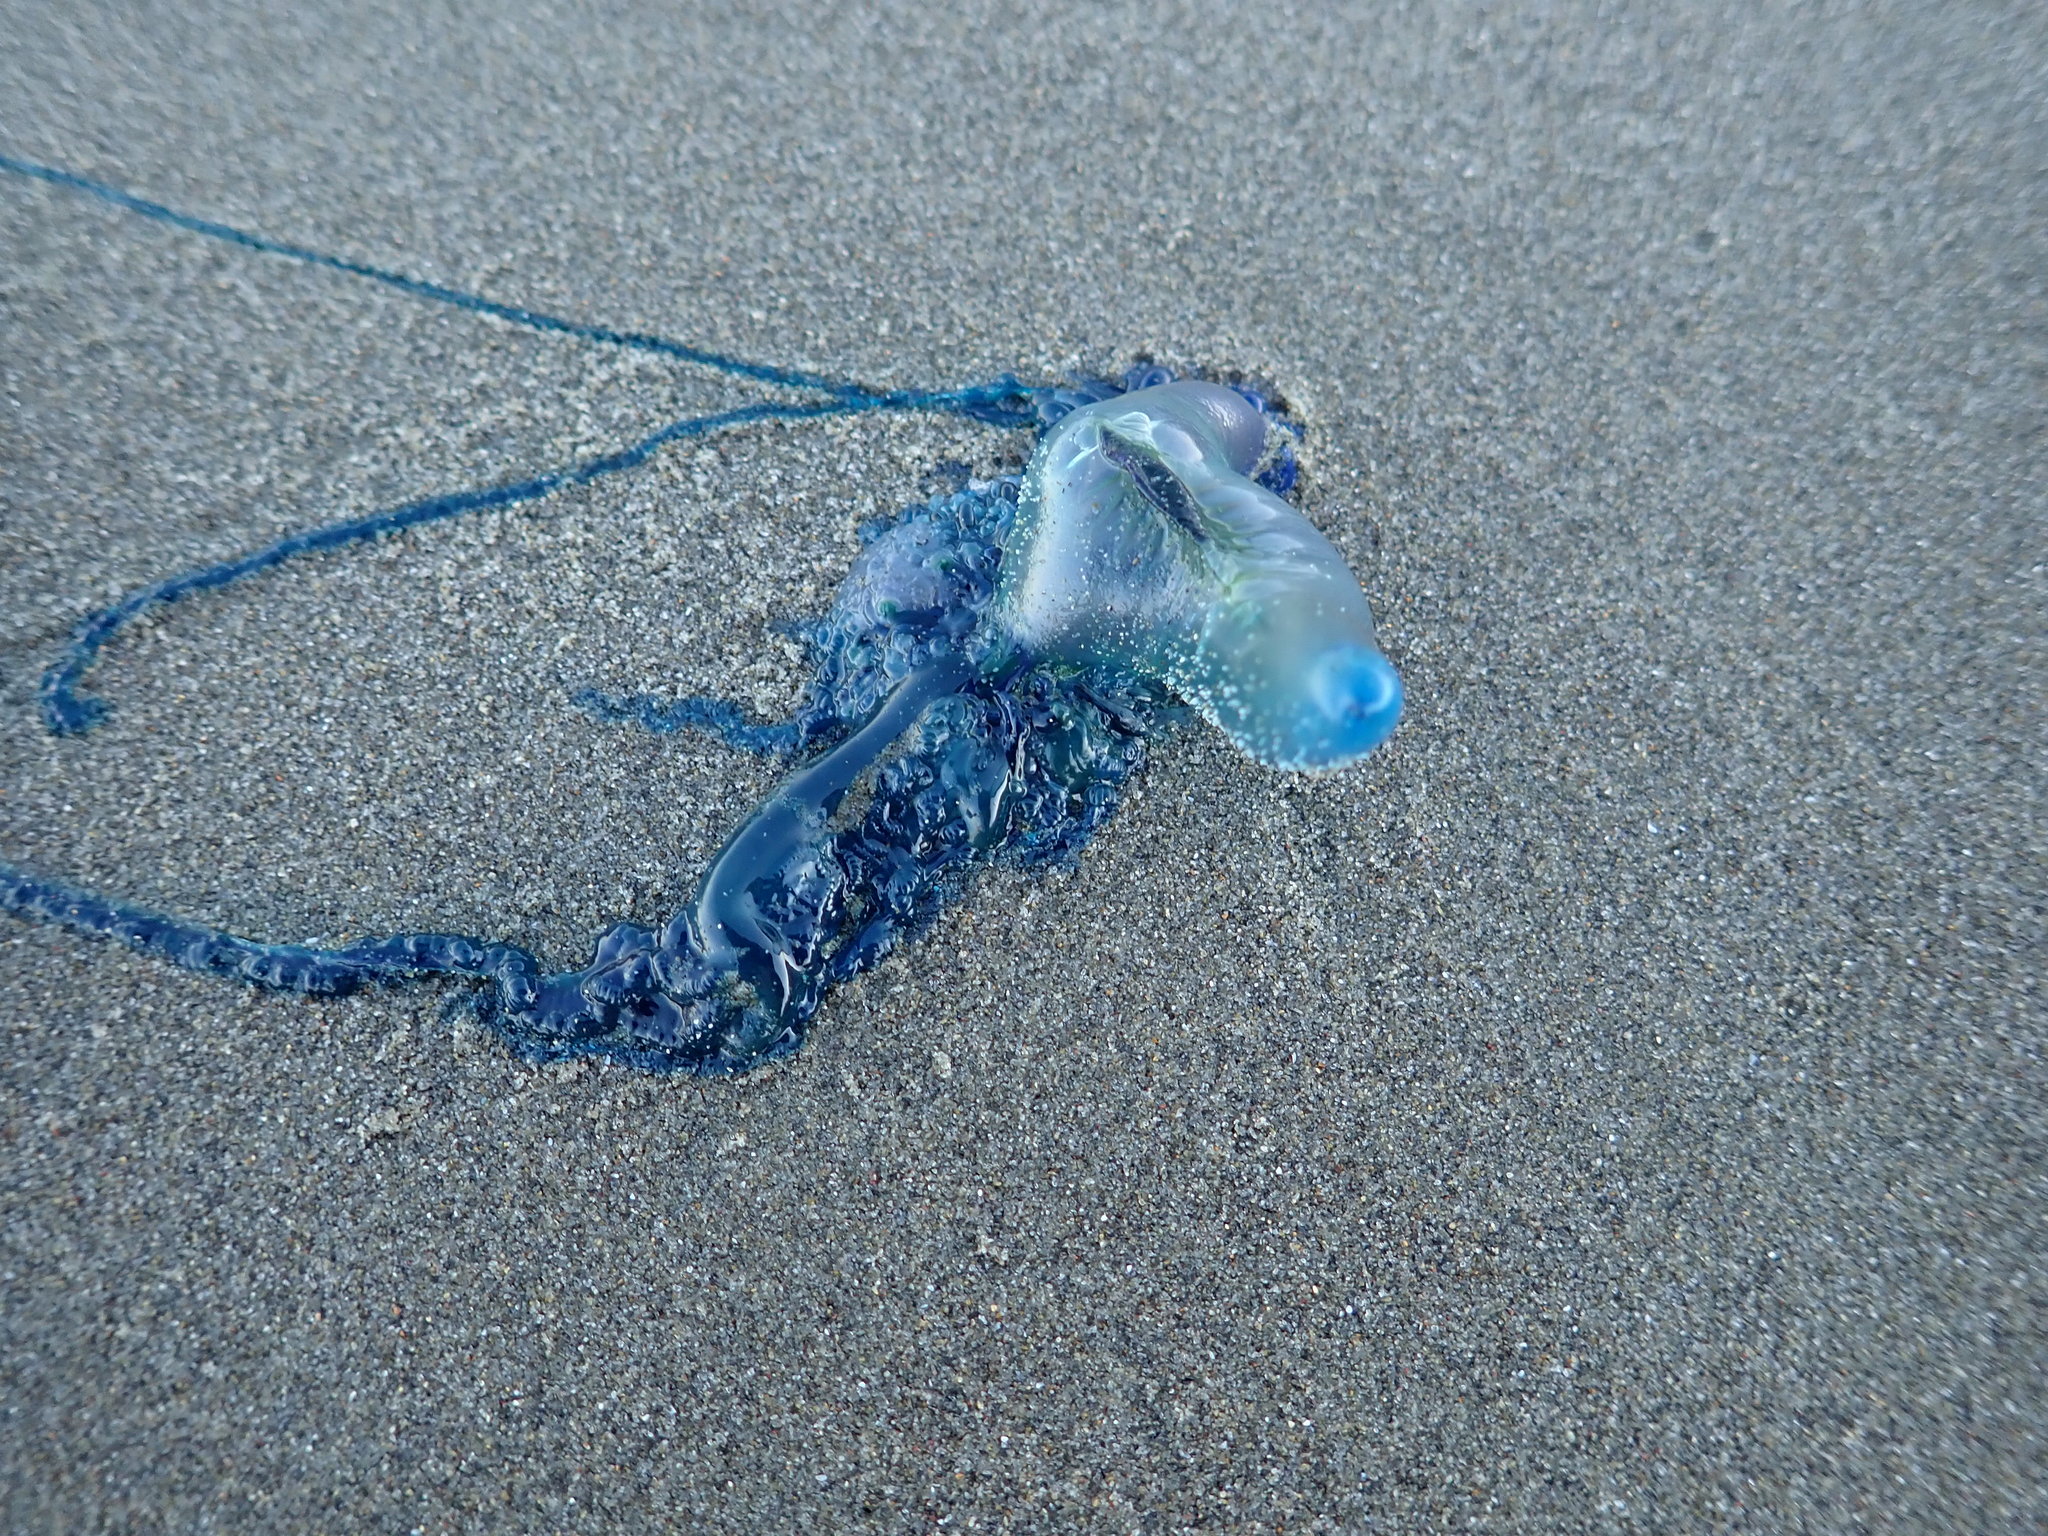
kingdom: Animalia
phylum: Cnidaria
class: Hydrozoa
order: Siphonophorae
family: Physaliidae
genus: Physalia
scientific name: Physalia physalis
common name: Portuguese man-of-war
